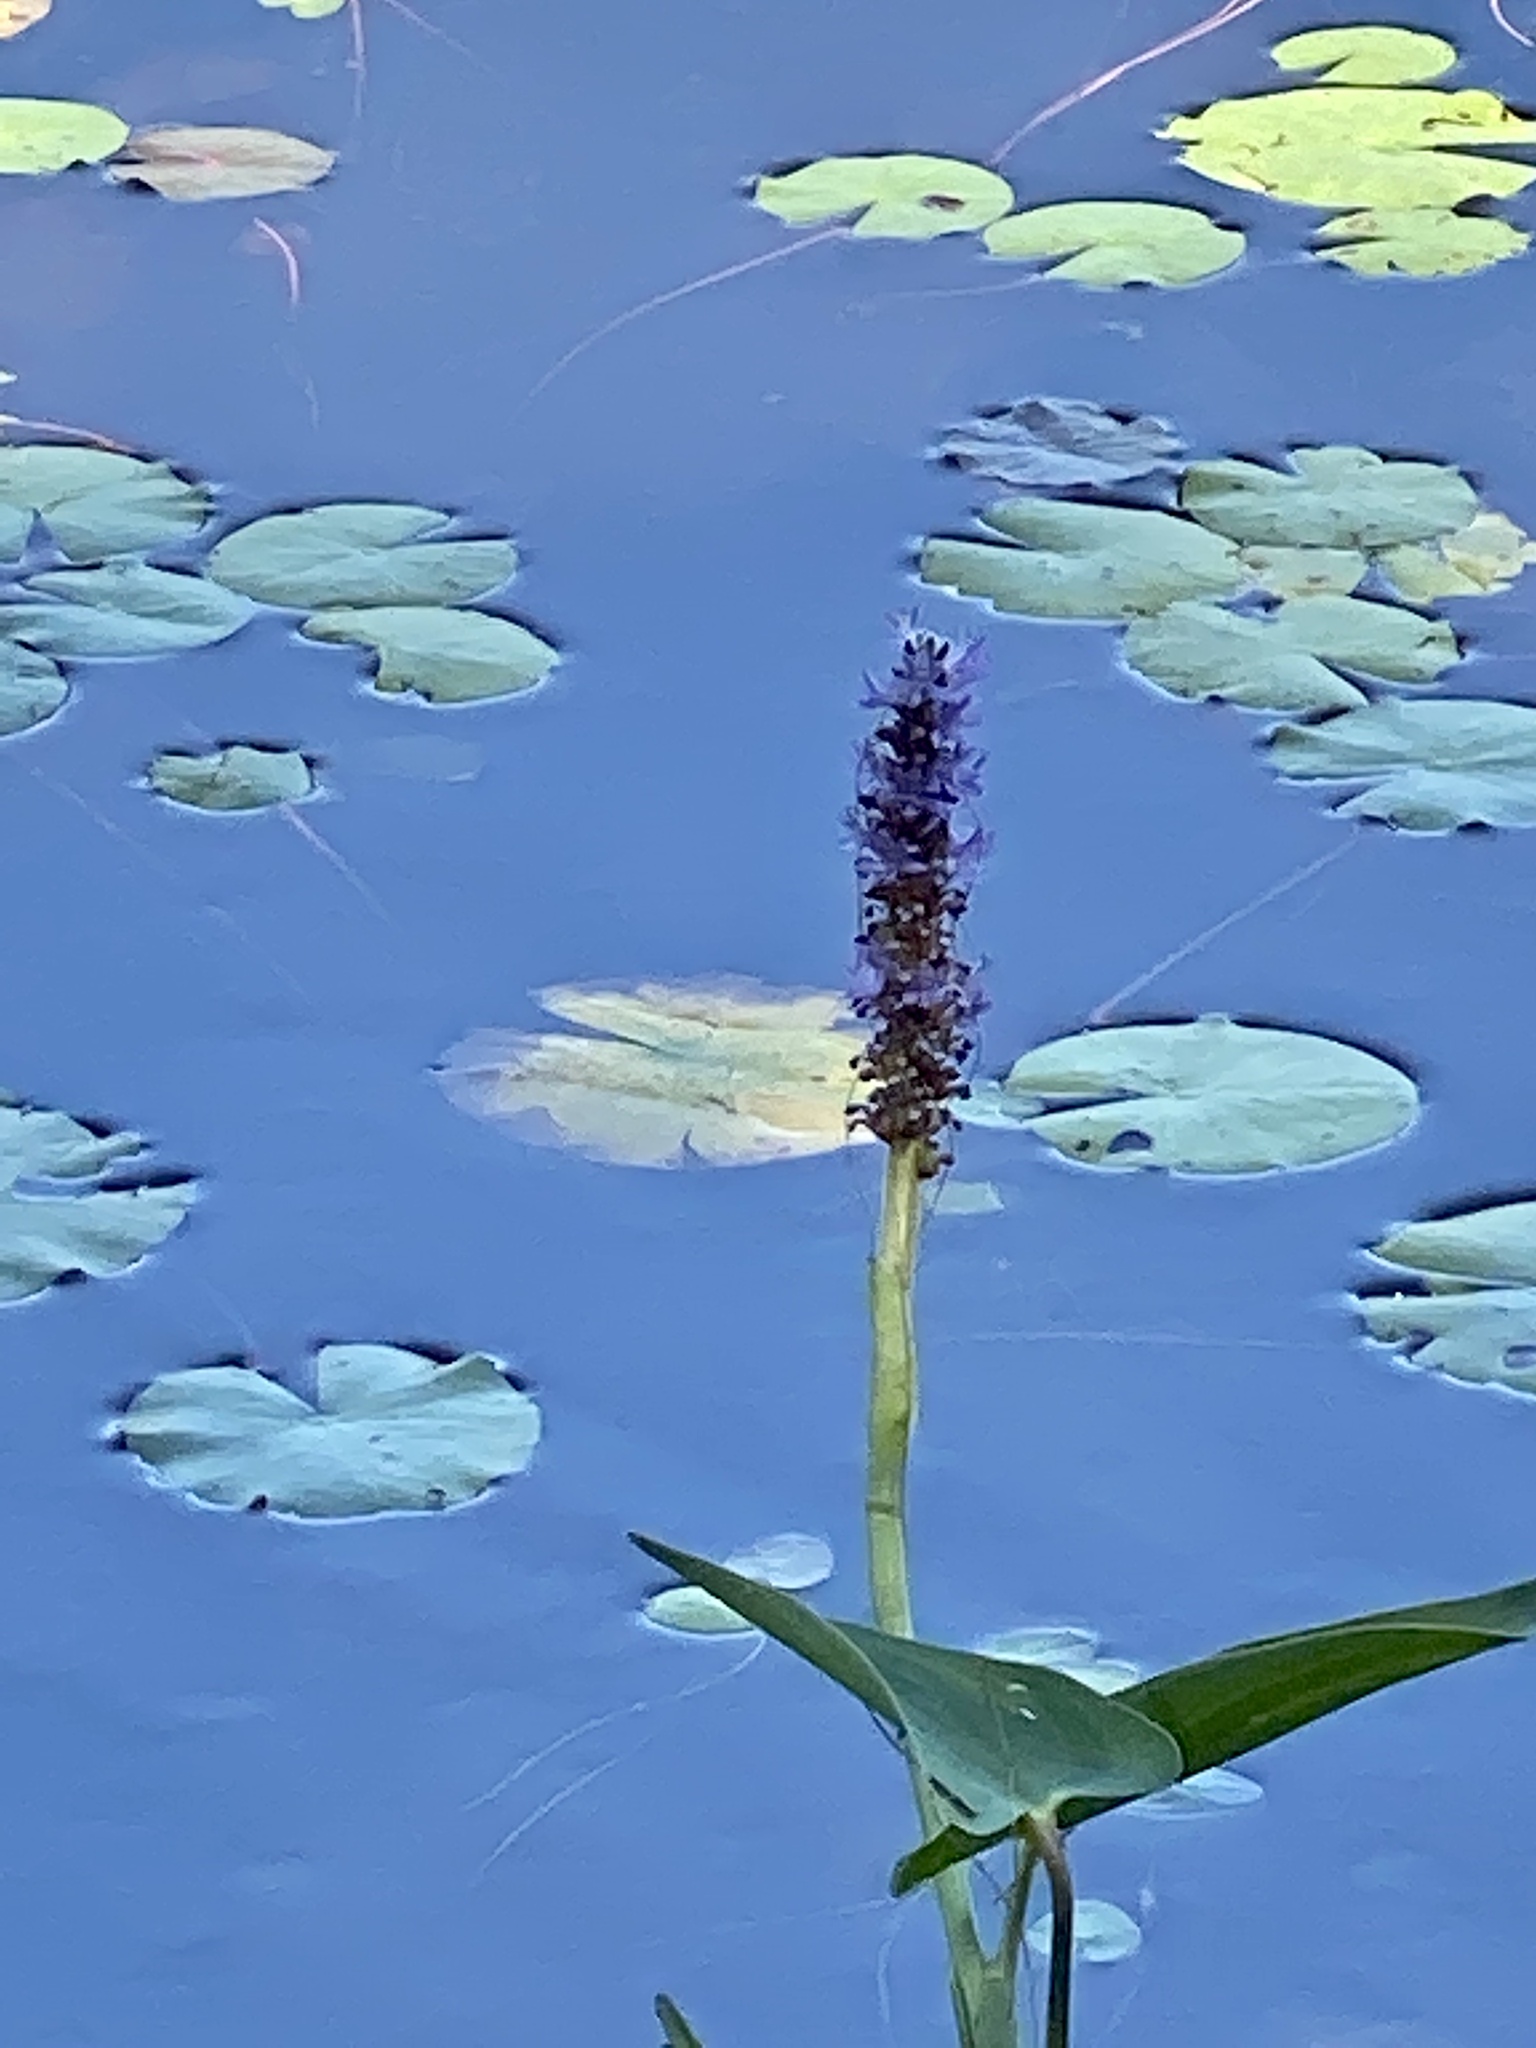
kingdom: Plantae
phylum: Tracheophyta
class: Liliopsida
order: Commelinales
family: Pontederiaceae
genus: Pontederia
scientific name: Pontederia cordata
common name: Pickerelweed
